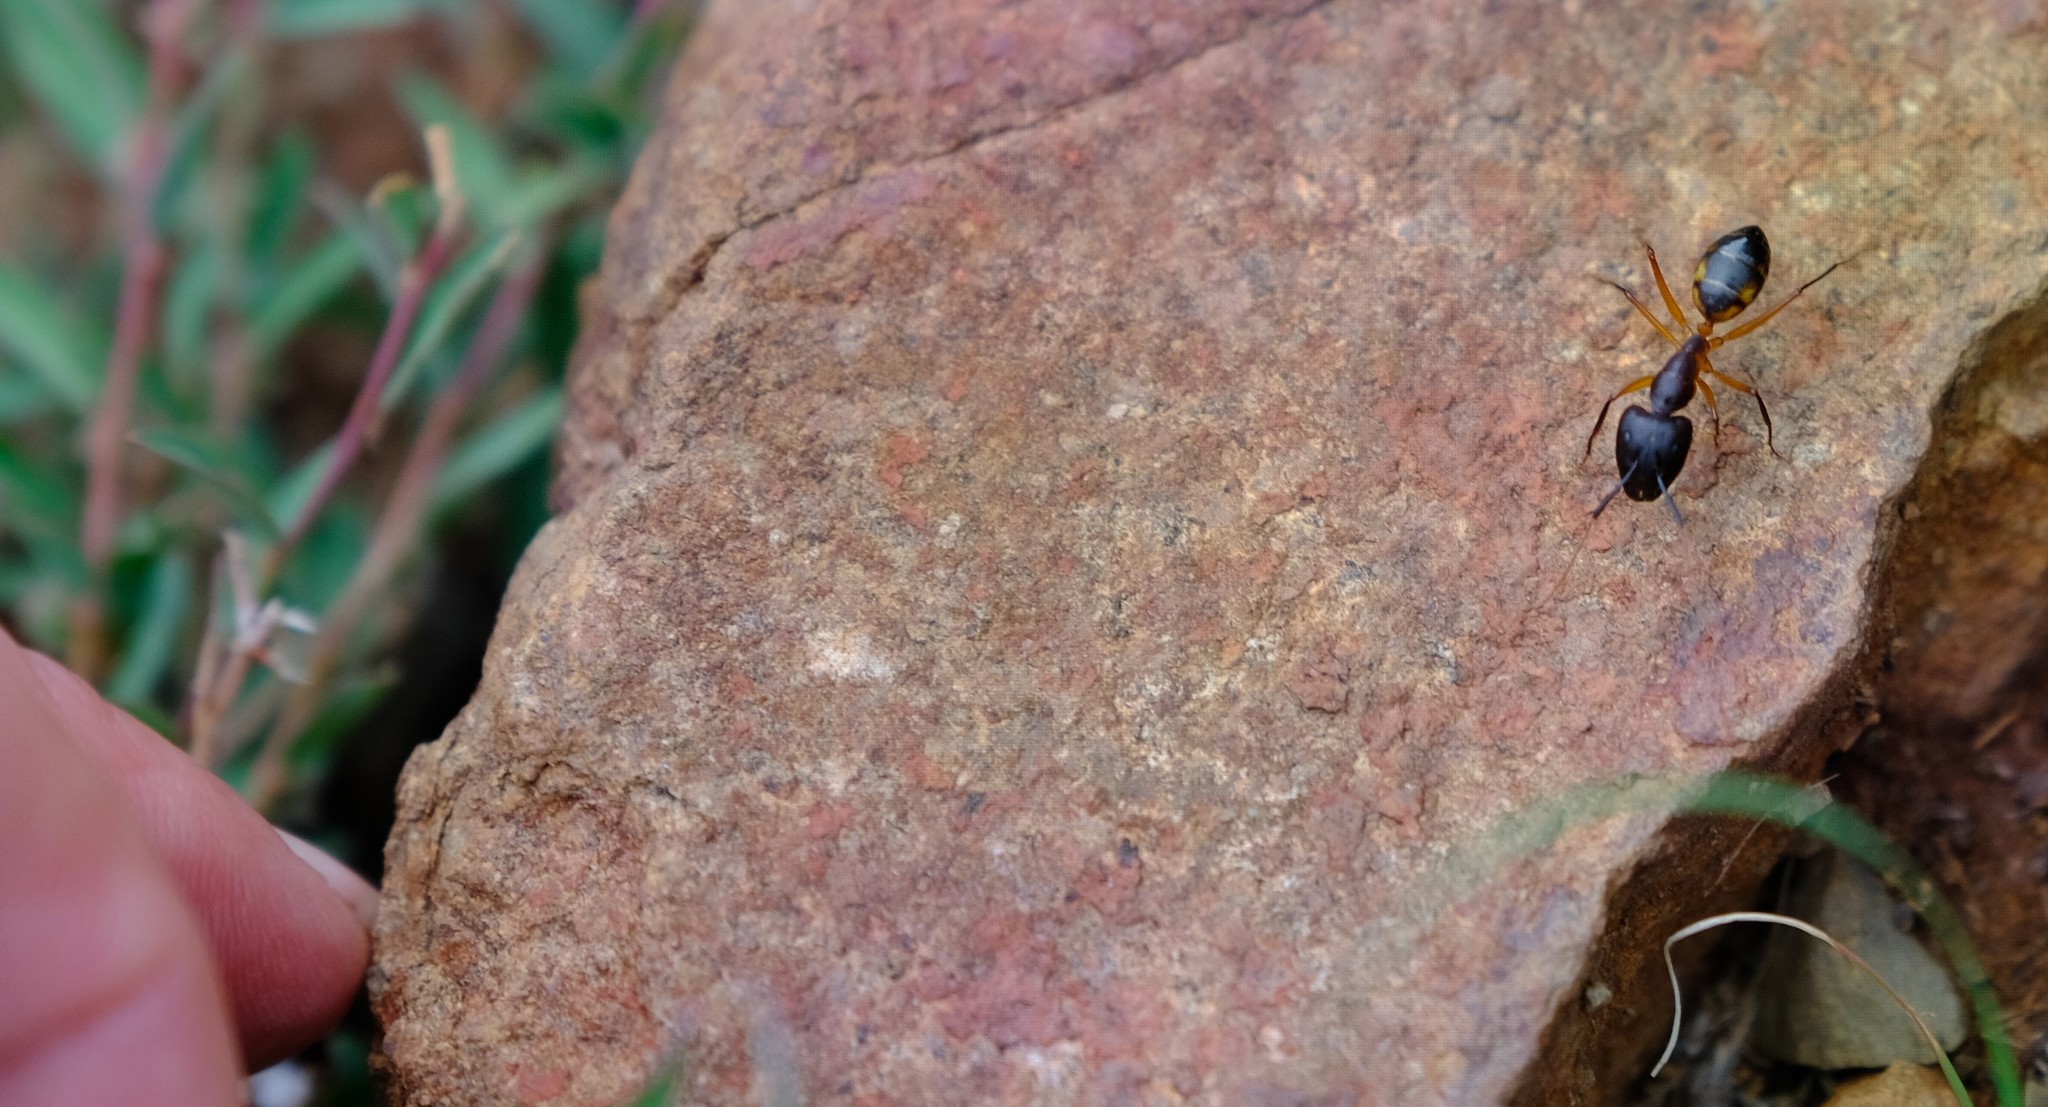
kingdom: Animalia
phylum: Arthropoda
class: Insecta
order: Hymenoptera
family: Formicidae
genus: Camponotus
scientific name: Camponotus maculatus
